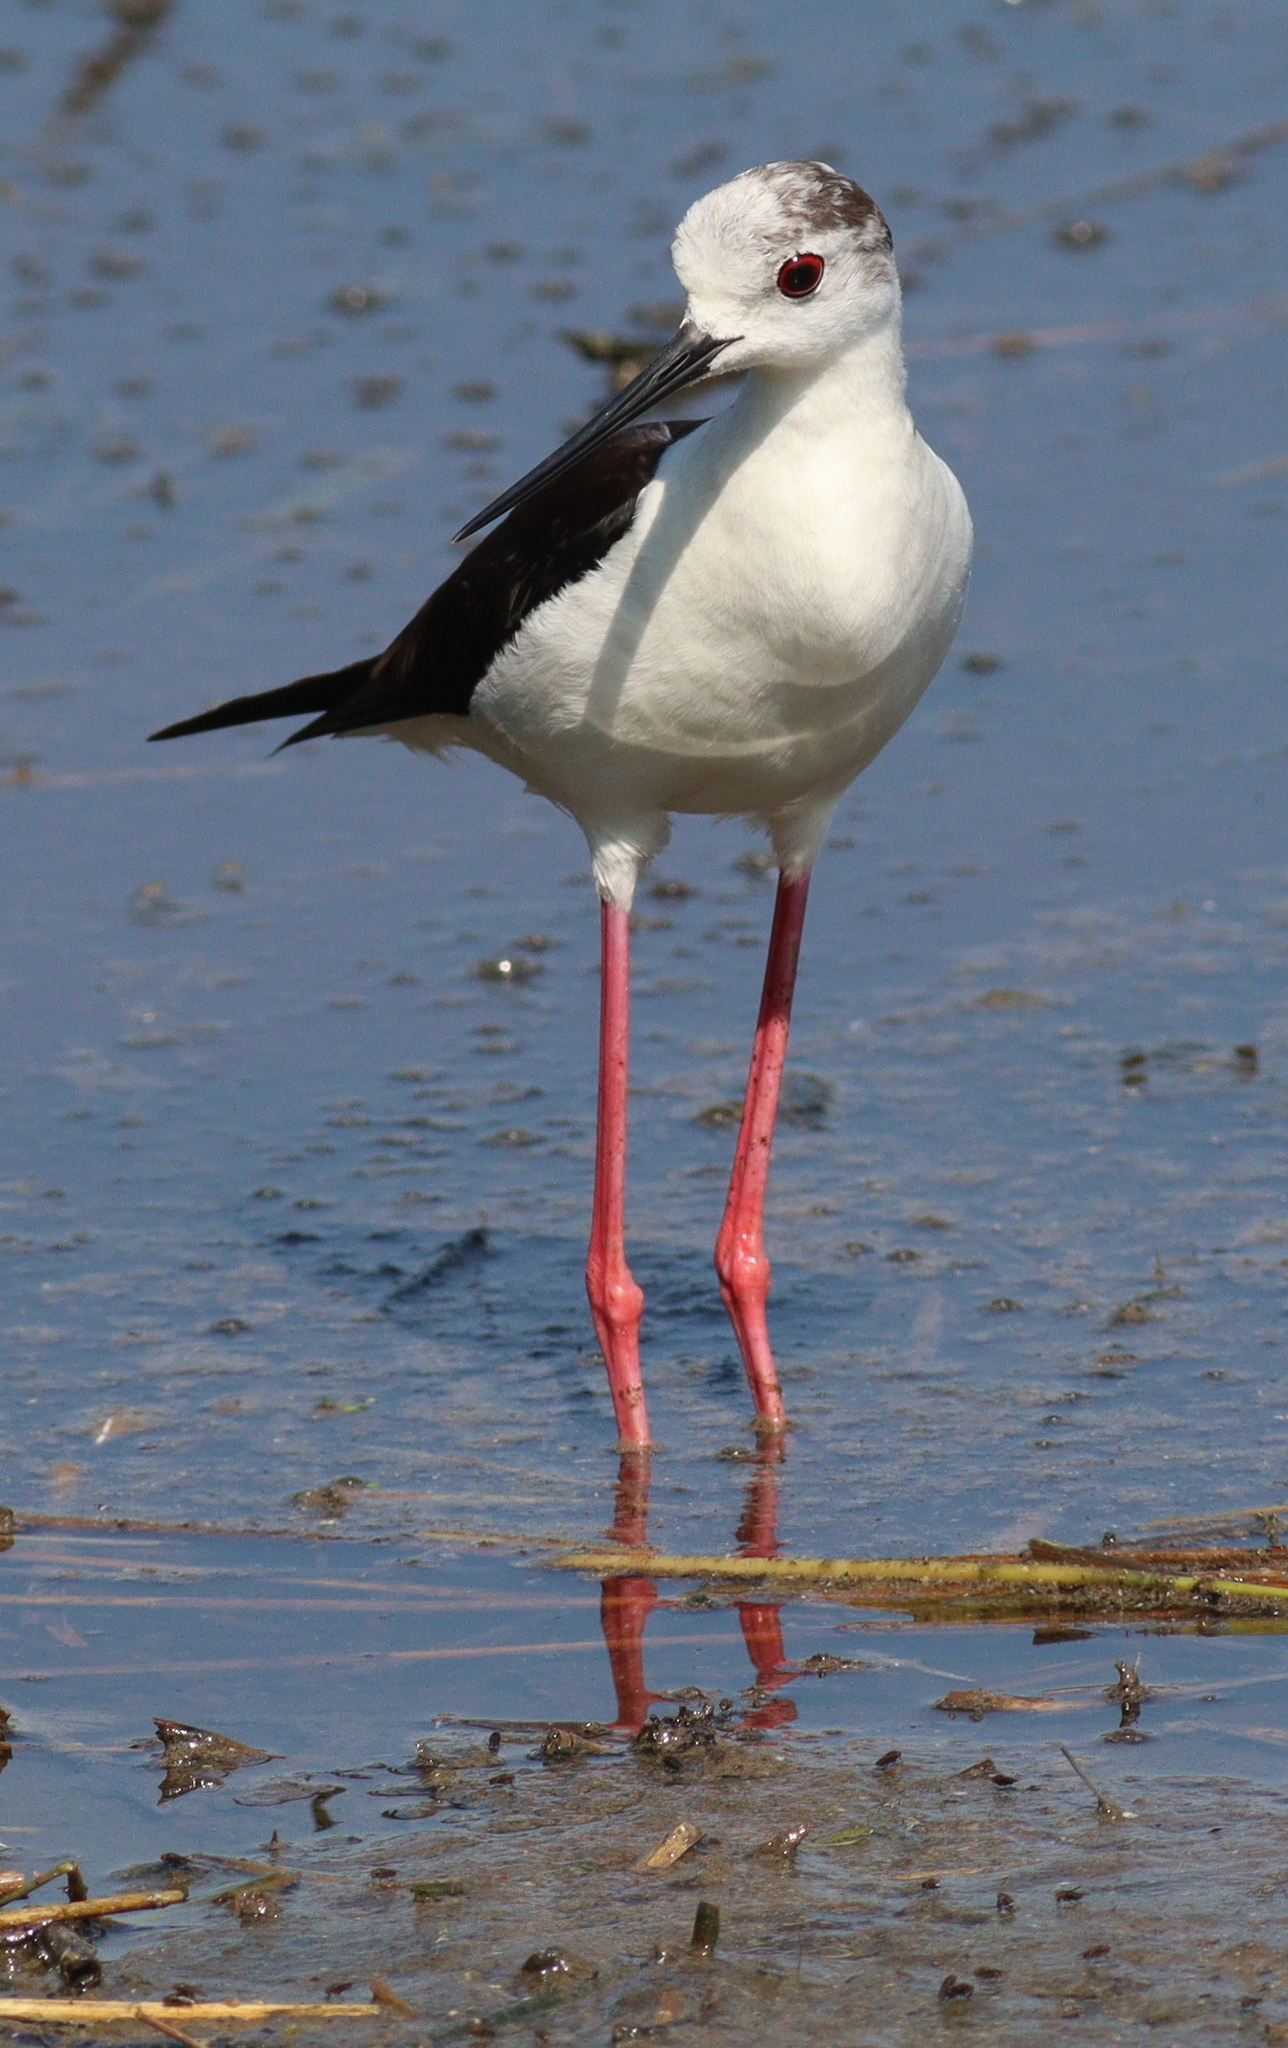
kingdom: Animalia
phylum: Chordata
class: Aves
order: Charadriiformes
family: Recurvirostridae
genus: Himantopus
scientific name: Himantopus himantopus
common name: Black-winged stilt
